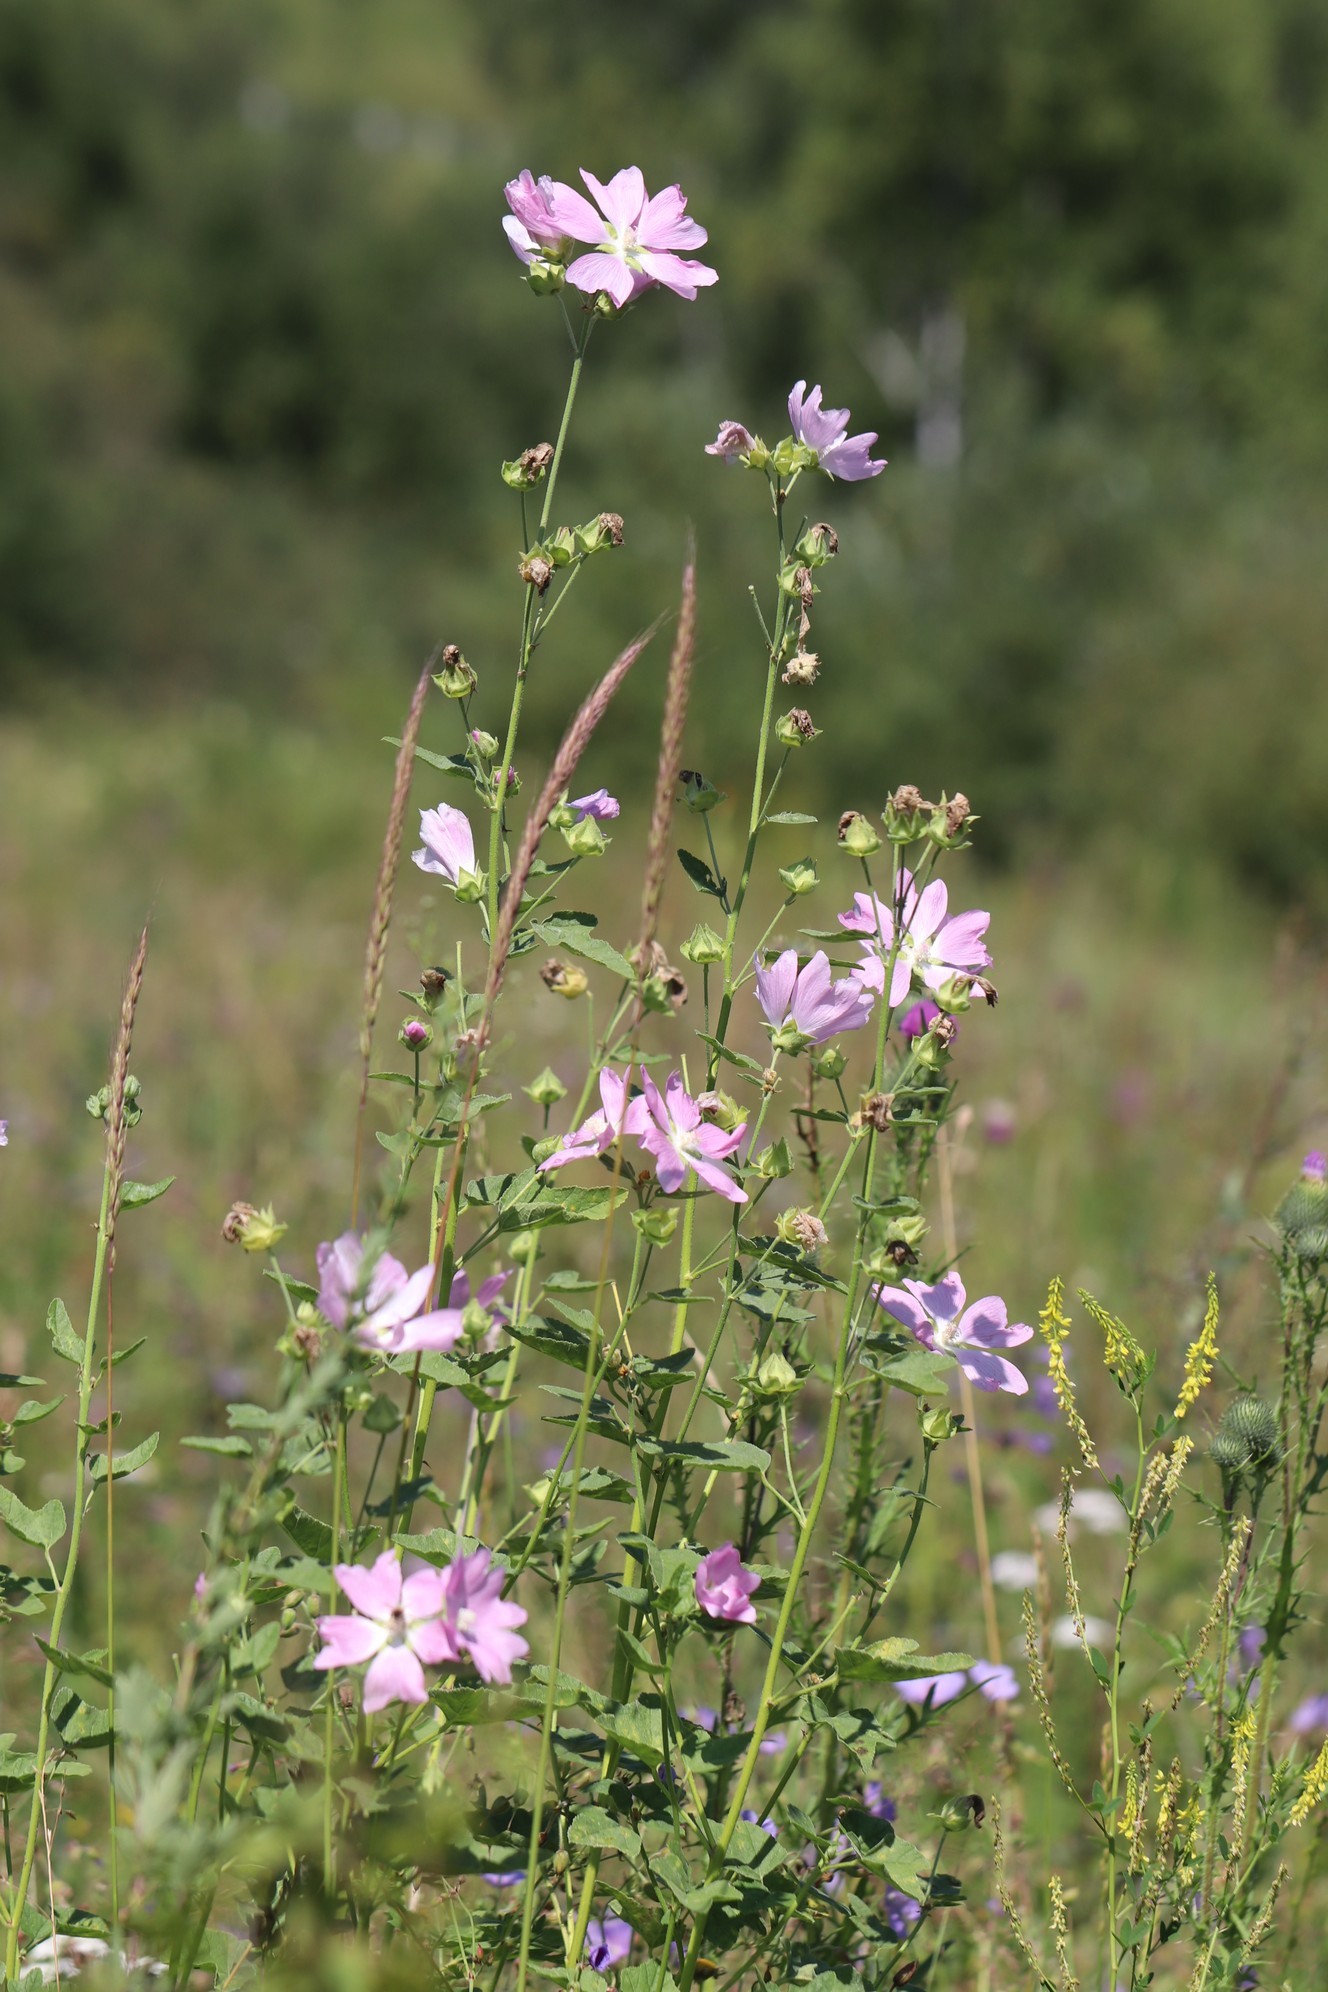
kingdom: Plantae
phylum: Tracheophyta
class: Magnoliopsida
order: Malvales
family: Malvaceae
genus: Malva
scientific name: Malva thuringiaca
